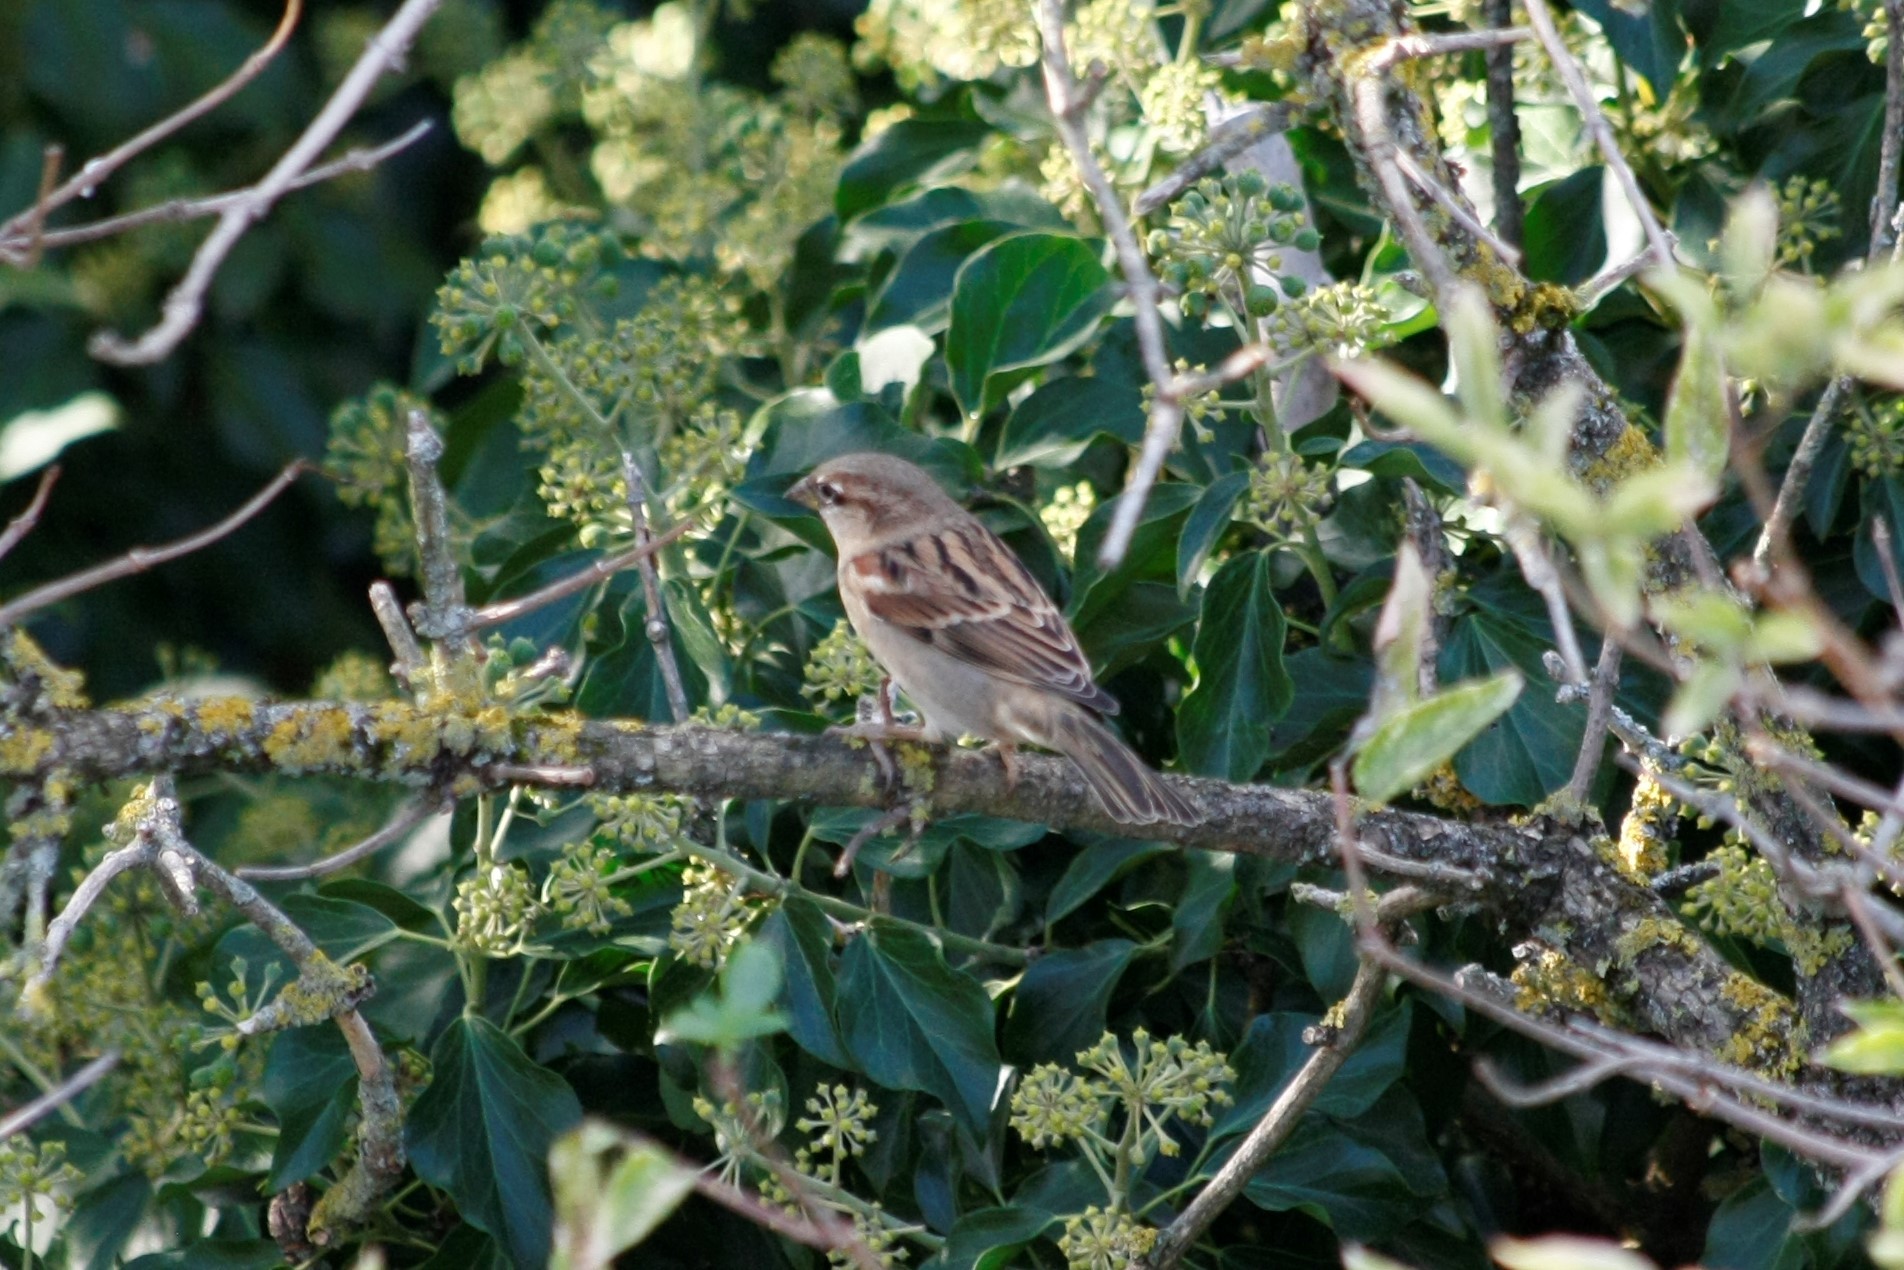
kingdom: Animalia
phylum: Chordata
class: Aves
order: Passeriformes
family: Passeridae
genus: Passer
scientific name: Passer domesticus
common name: House sparrow
